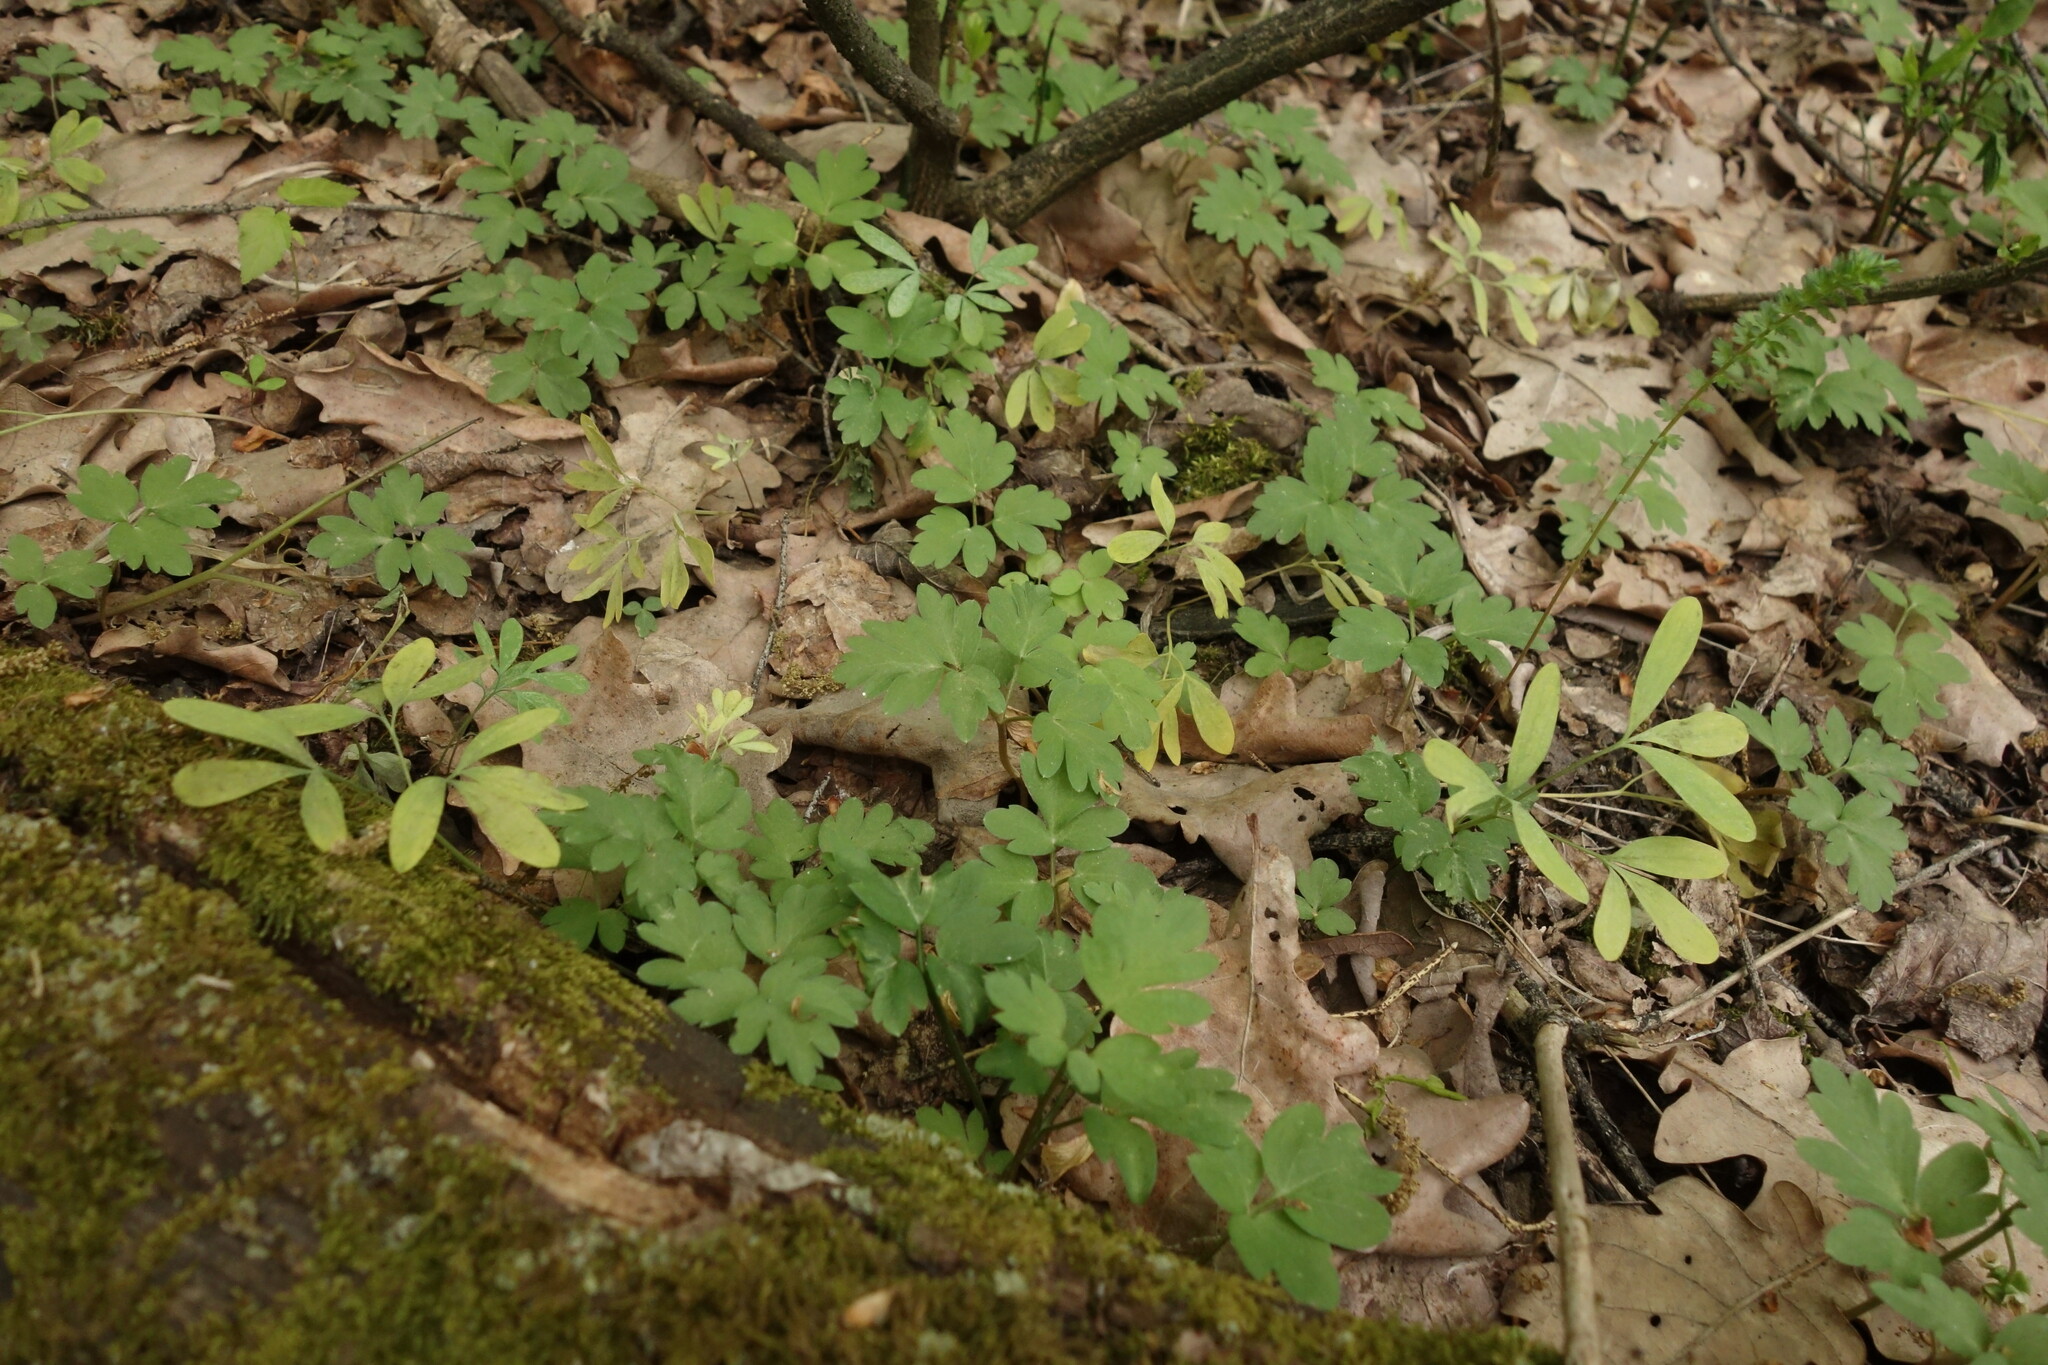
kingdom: Plantae
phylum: Tracheophyta
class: Magnoliopsida
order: Dipsacales
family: Viburnaceae
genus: Adoxa
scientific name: Adoxa moschatellina
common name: Moschatel
